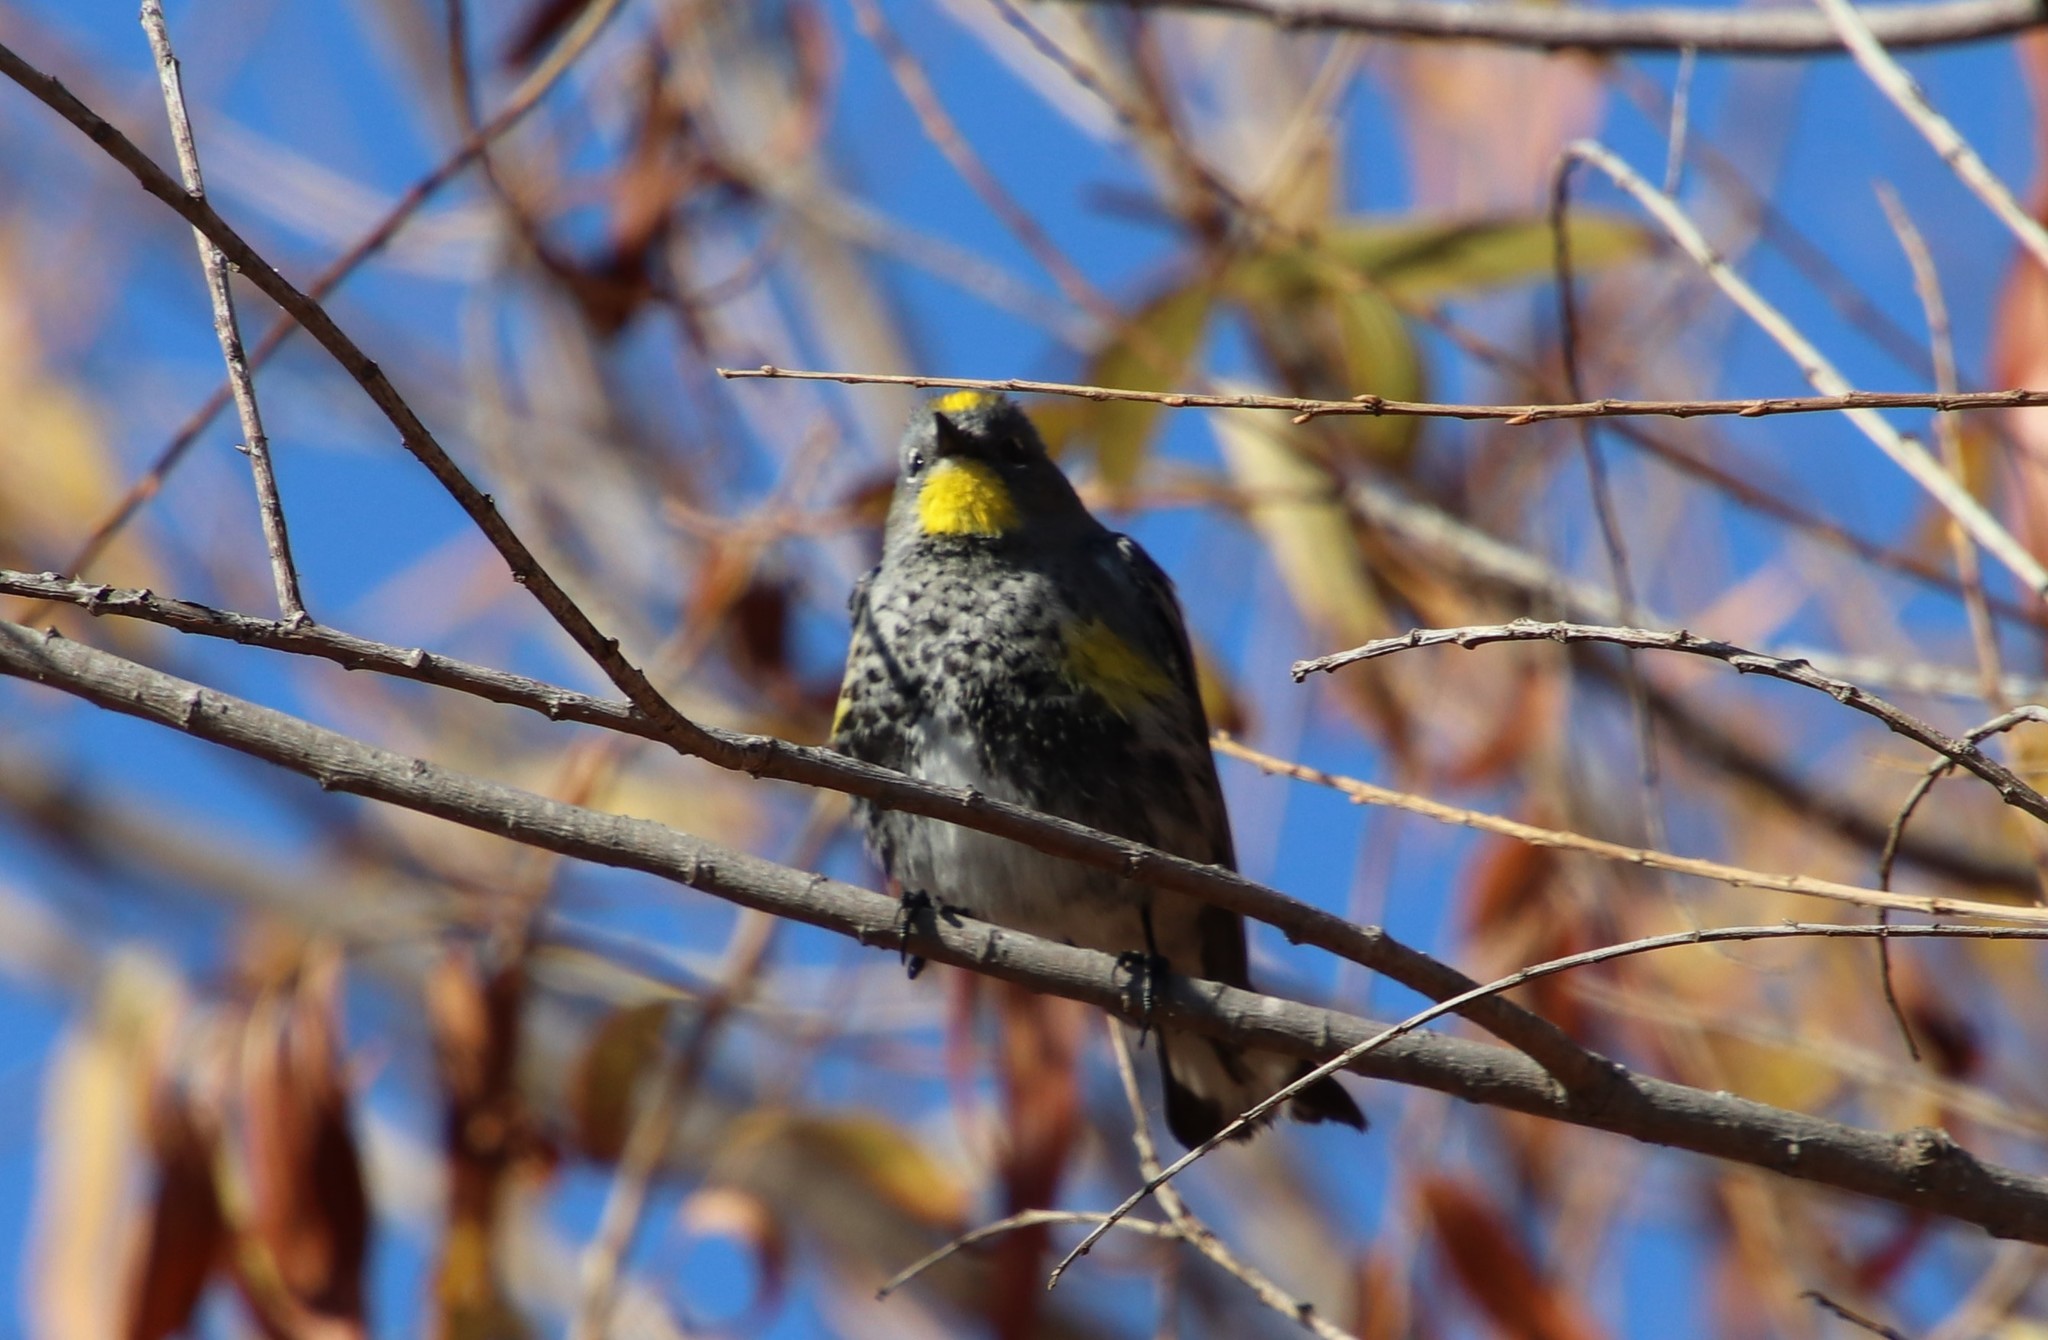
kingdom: Animalia
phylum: Chordata
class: Aves
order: Passeriformes
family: Parulidae
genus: Setophaga
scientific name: Setophaga auduboni
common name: Audubon's warbler
